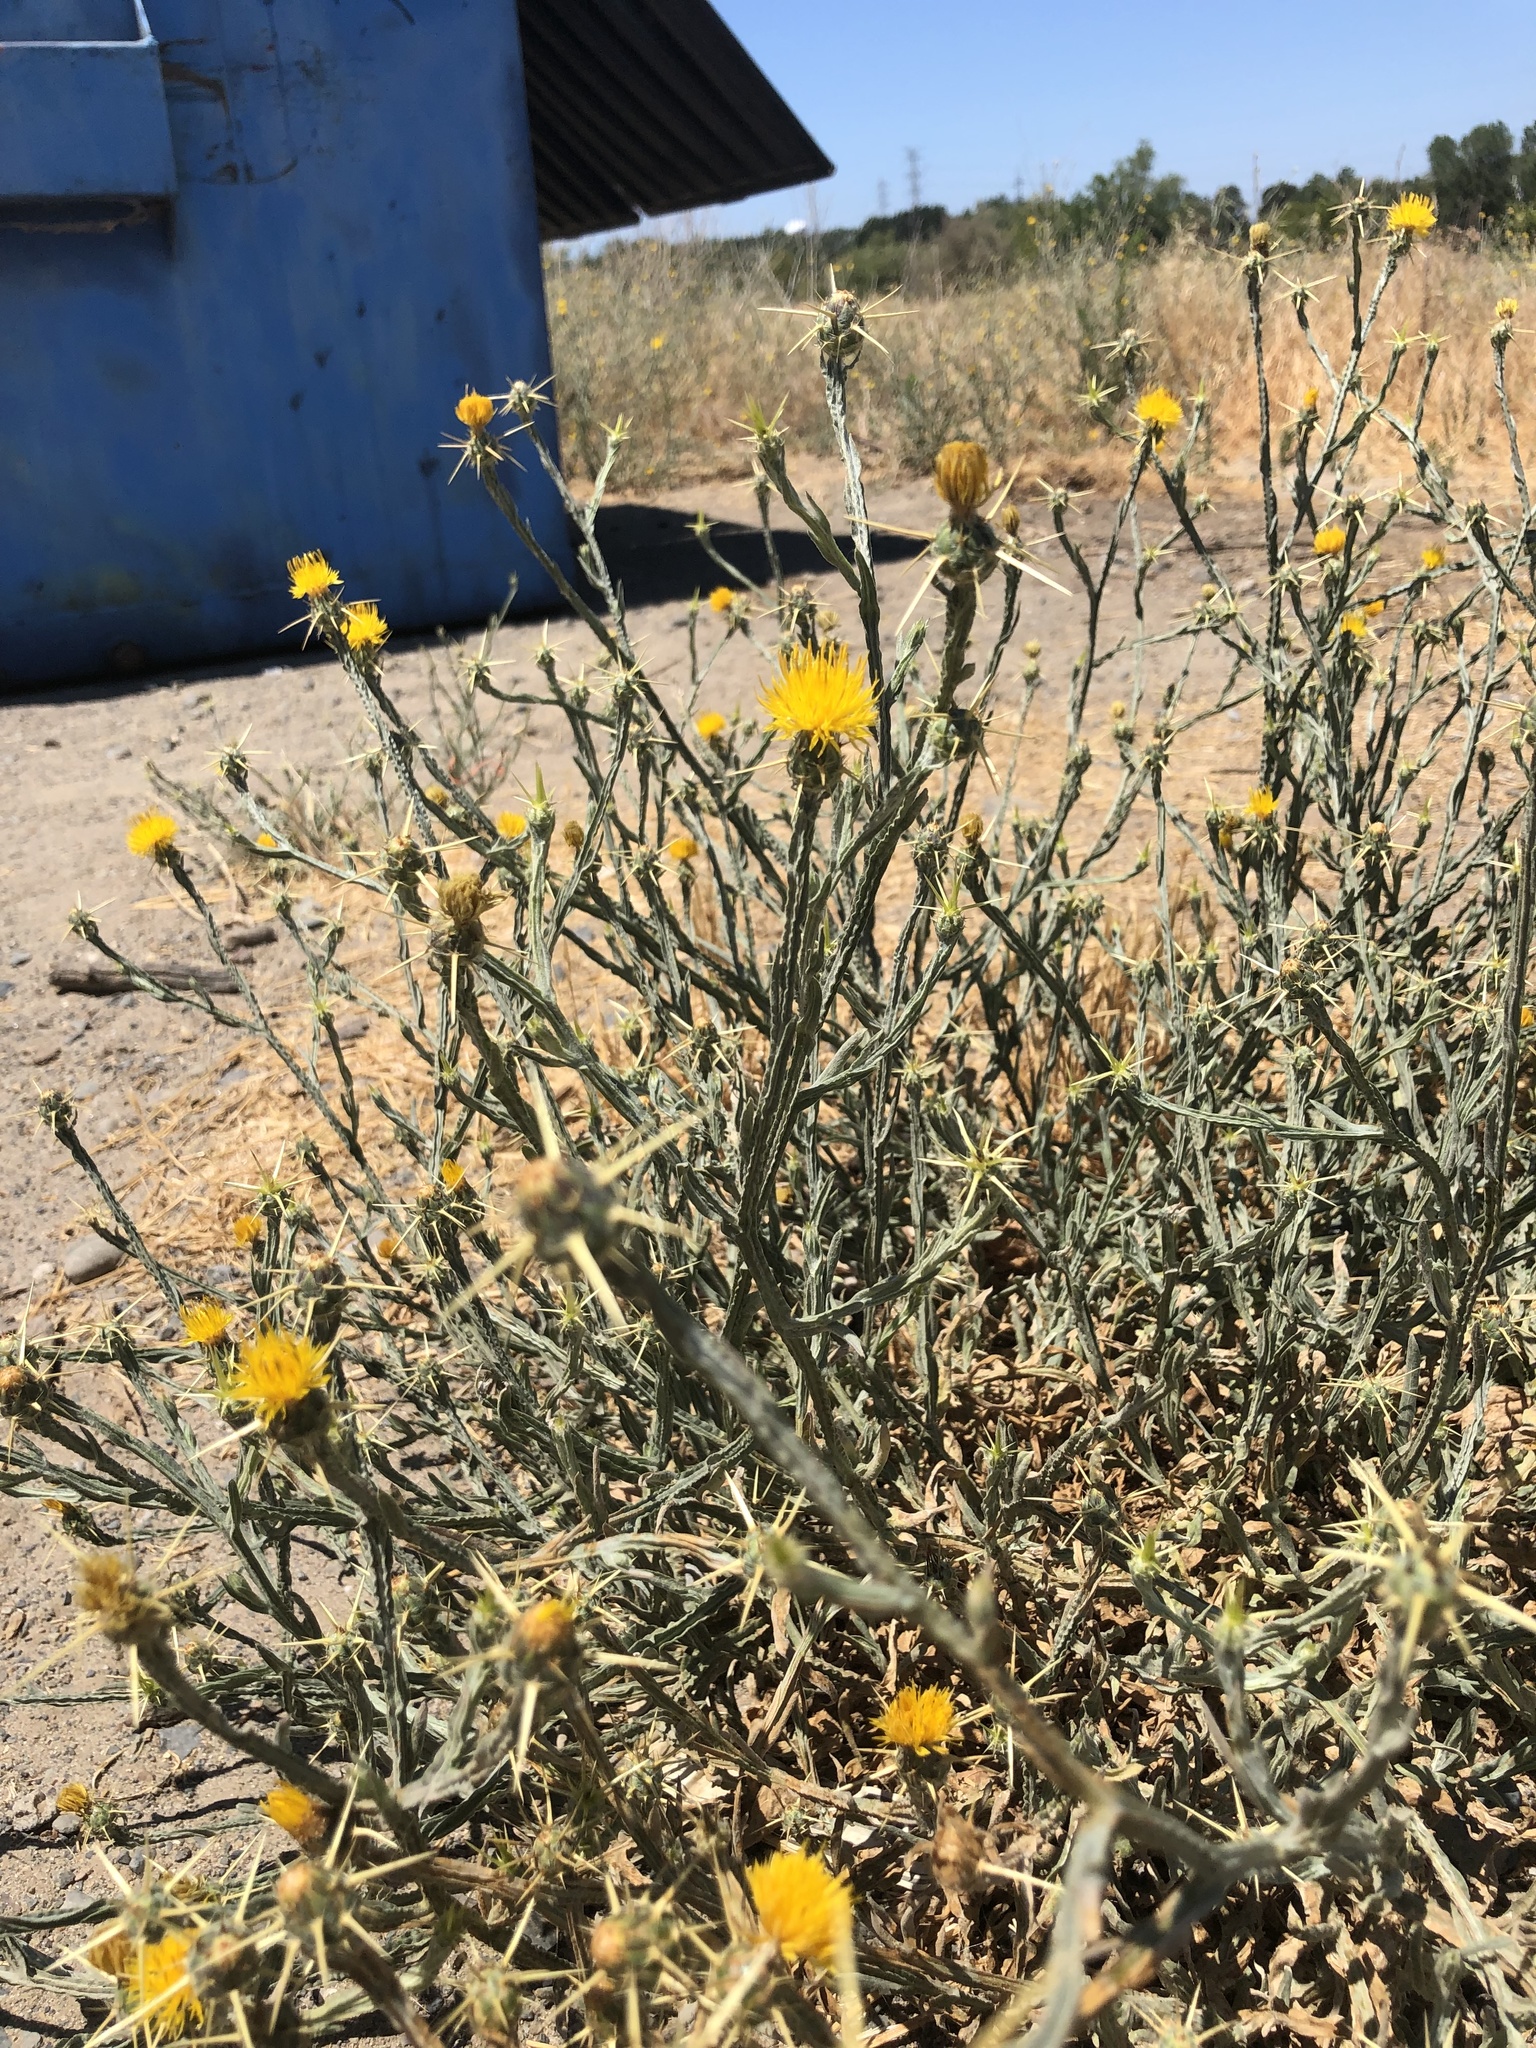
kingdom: Plantae
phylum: Tracheophyta
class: Magnoliopsida
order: Asterales
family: Asteraceae
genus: Centaurea
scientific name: Centaurea solstitialis
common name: Yellow star-thistle
